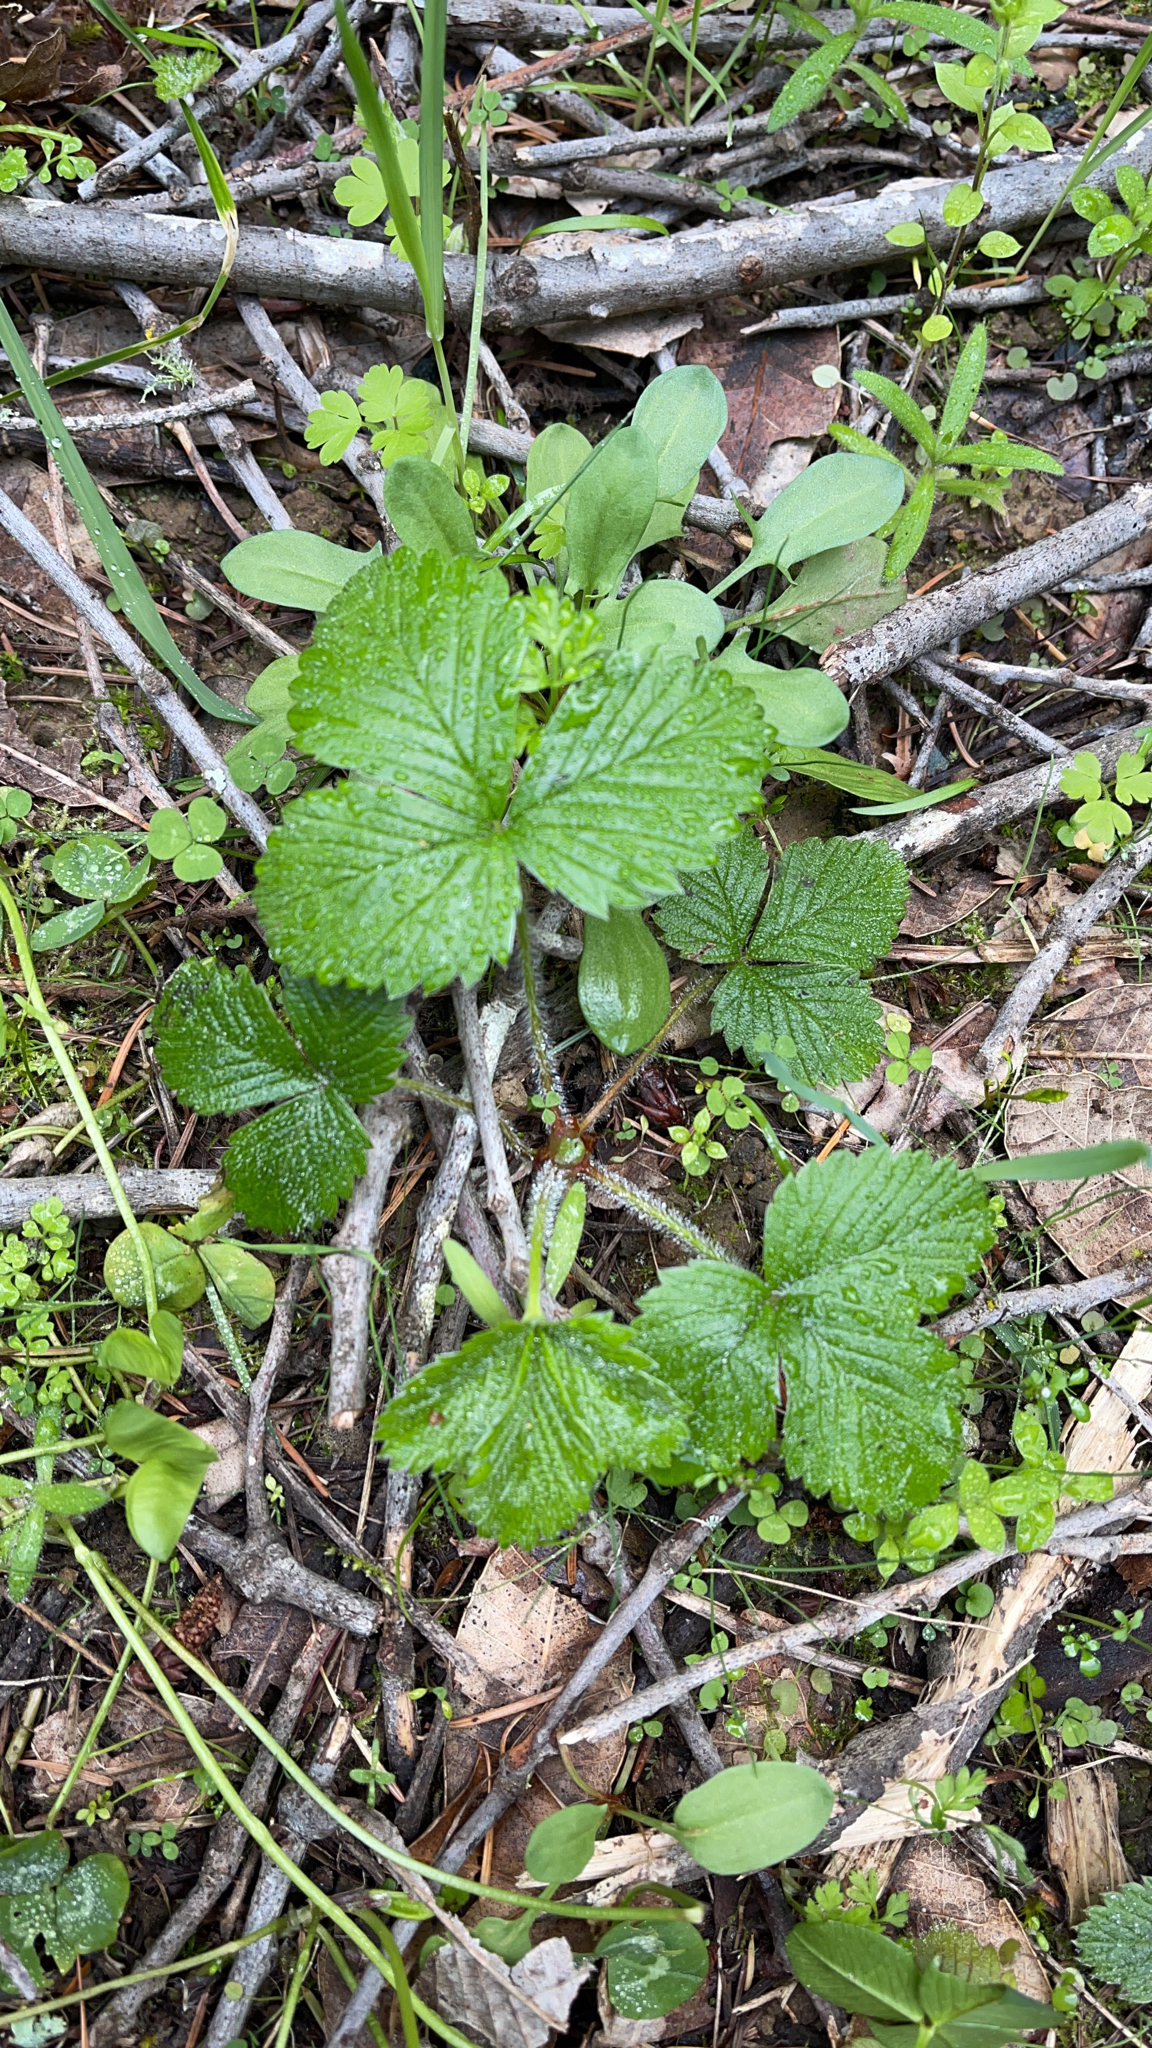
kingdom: Plantae
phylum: Tracheophyta
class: Magnoliopsida
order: Rosales
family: Rosaceae
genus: Fragaria
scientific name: Fragaria vesca
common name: Wild strawberry
